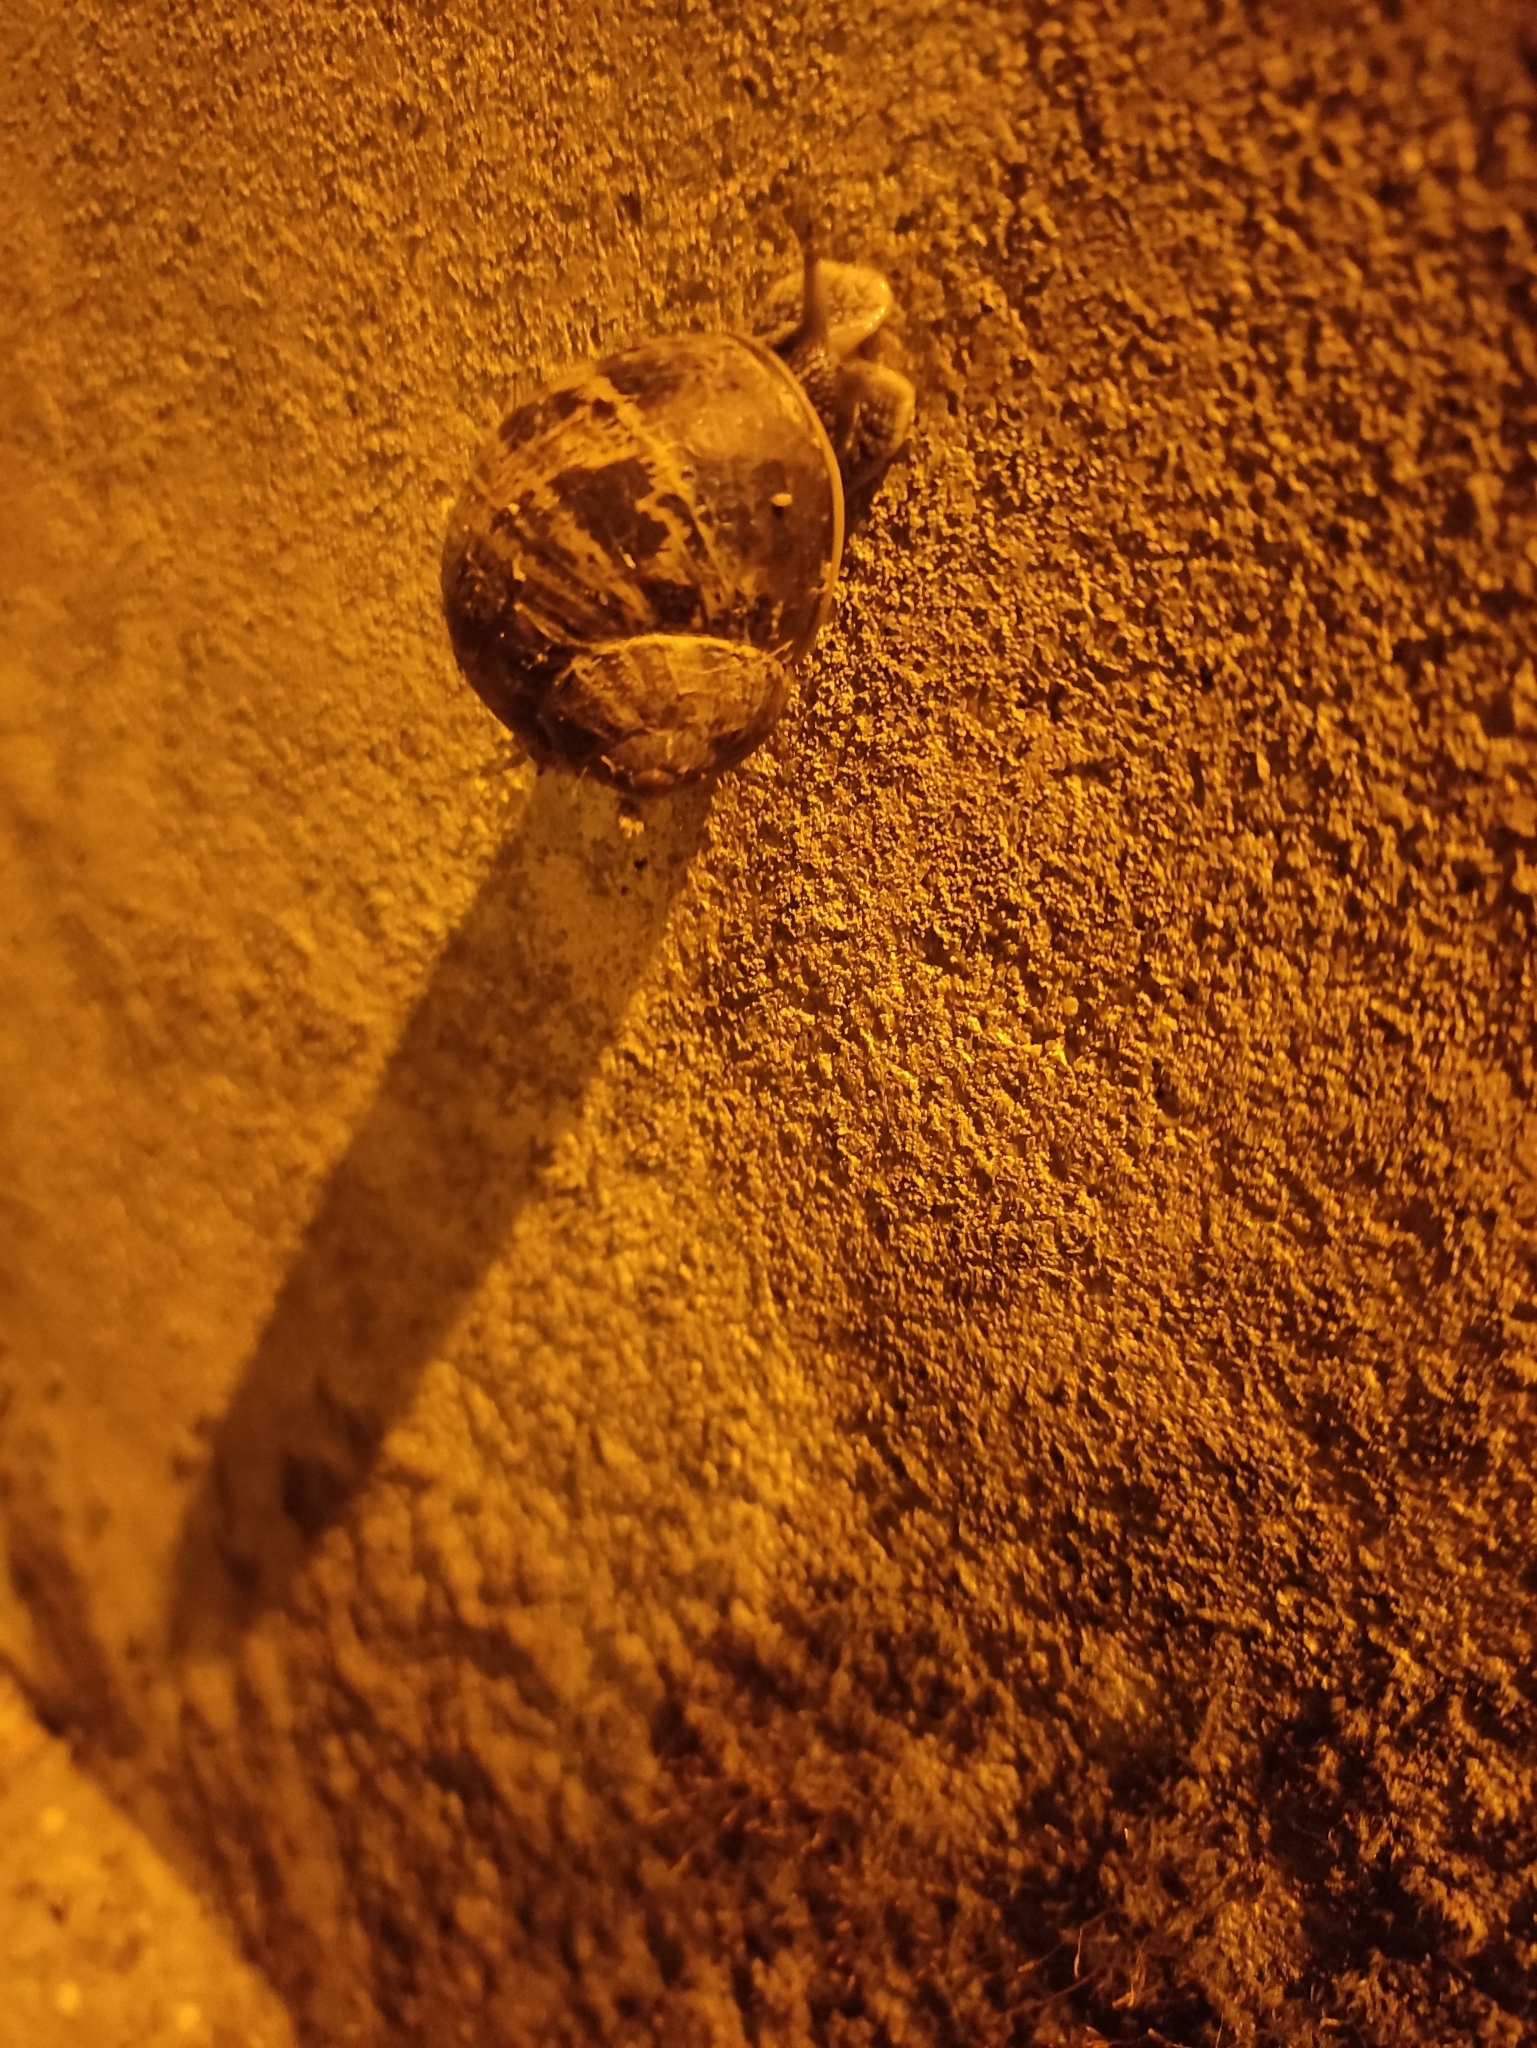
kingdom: Animalia
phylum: Mollusca
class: Gastropoda
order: Stylommatophora
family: Helicidae
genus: Cornu
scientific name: Cornu aspersum
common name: Brown garden snail
